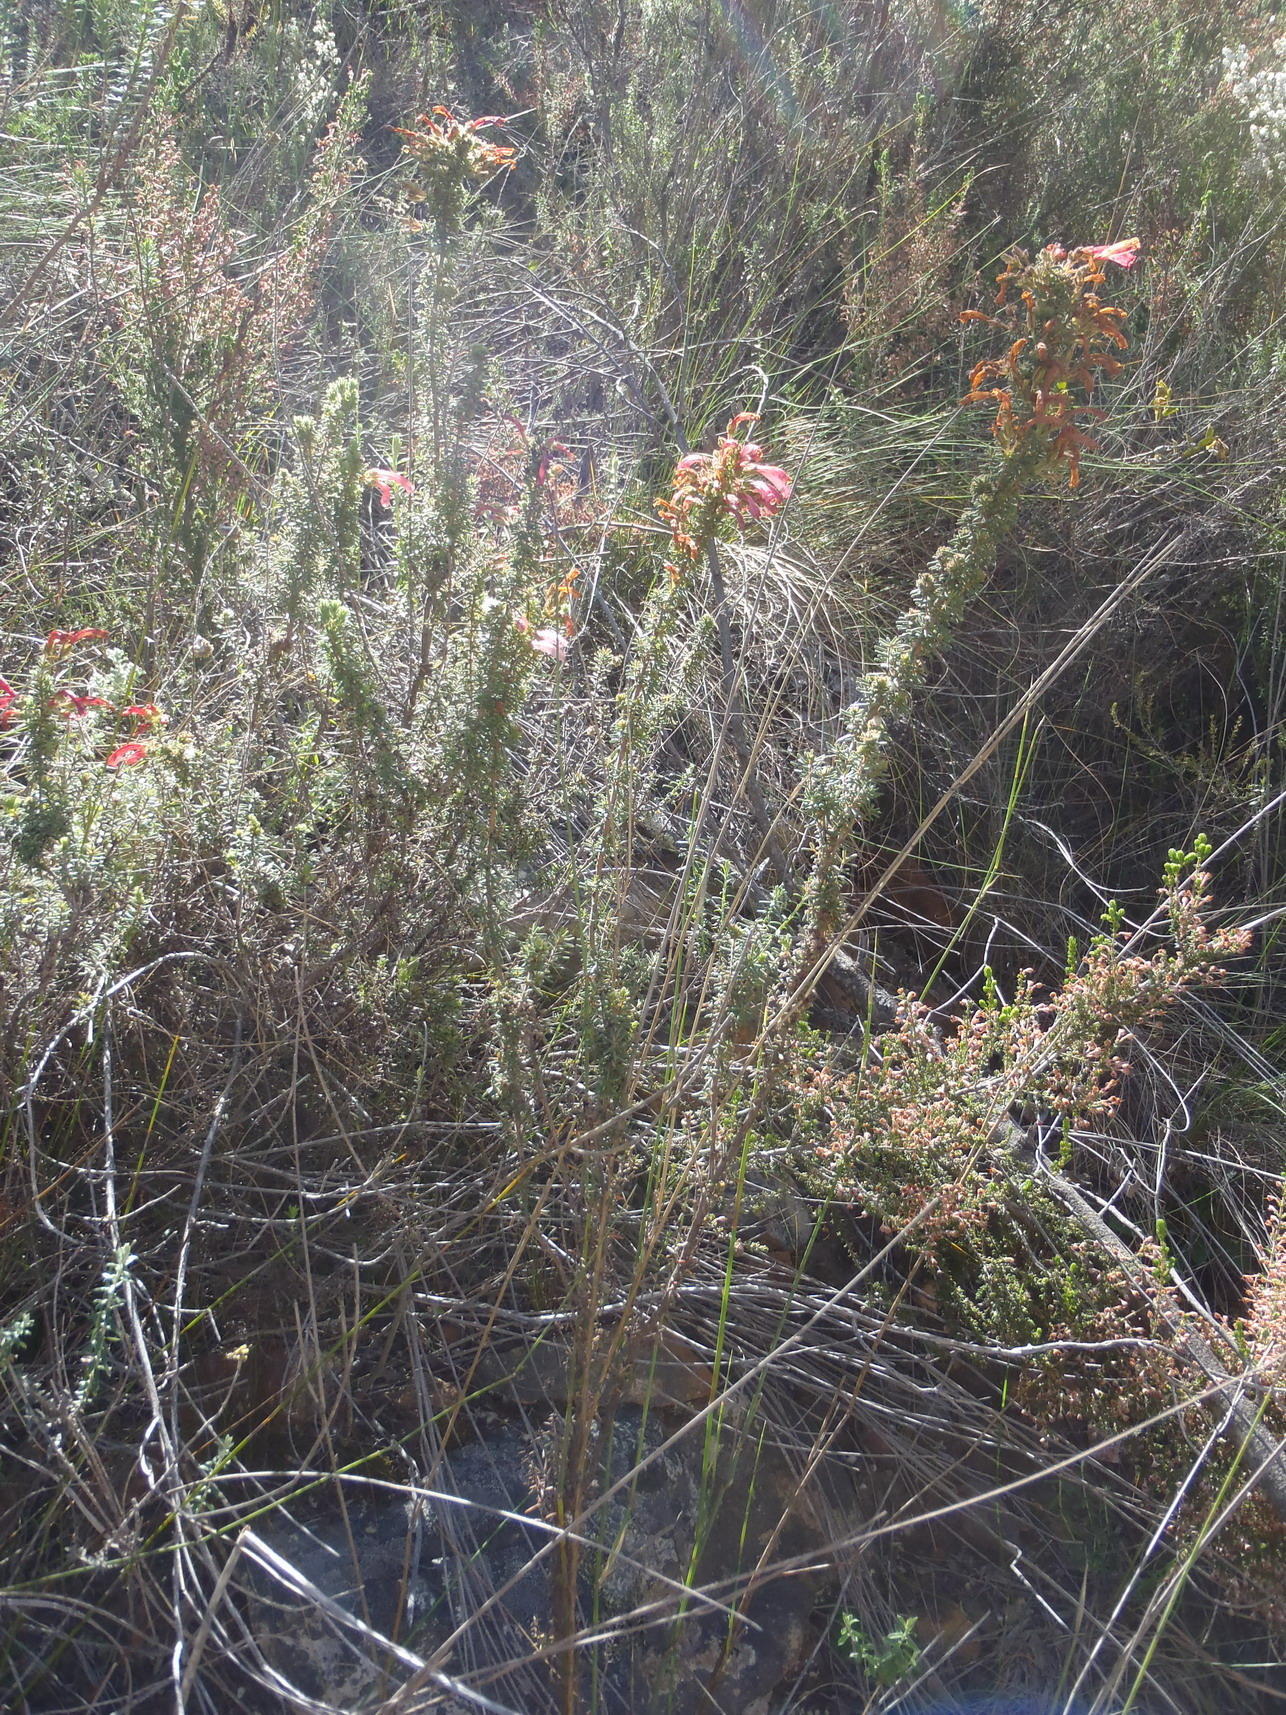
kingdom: Plantae
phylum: Tracheophyta
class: Magnoliopsida
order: Ericales
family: Ericaceae
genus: Erica
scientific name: Erica glandulosa
